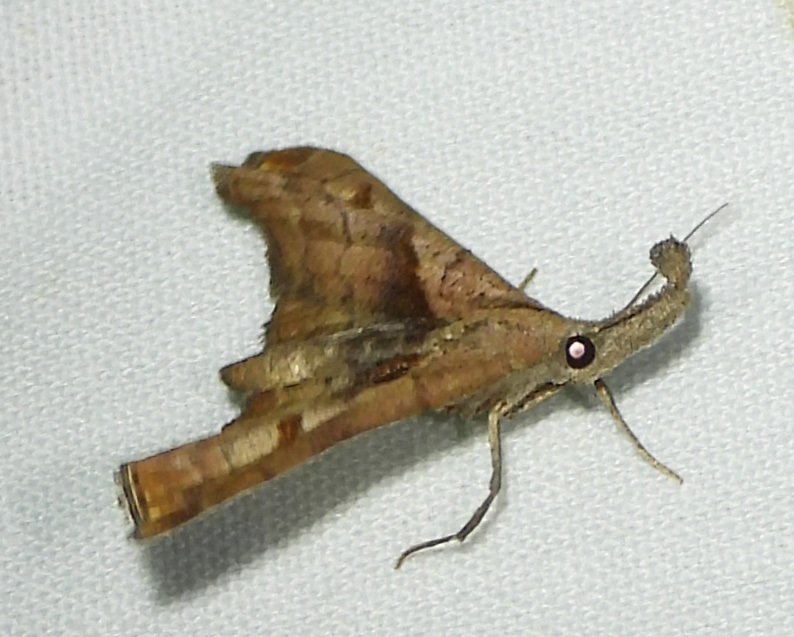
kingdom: Animalia
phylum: Arthropoda
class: Insecta
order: Lepidoptera
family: Erebidae
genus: Palthis
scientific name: Palthis angulalis
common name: Dark-spotted palthis moth
